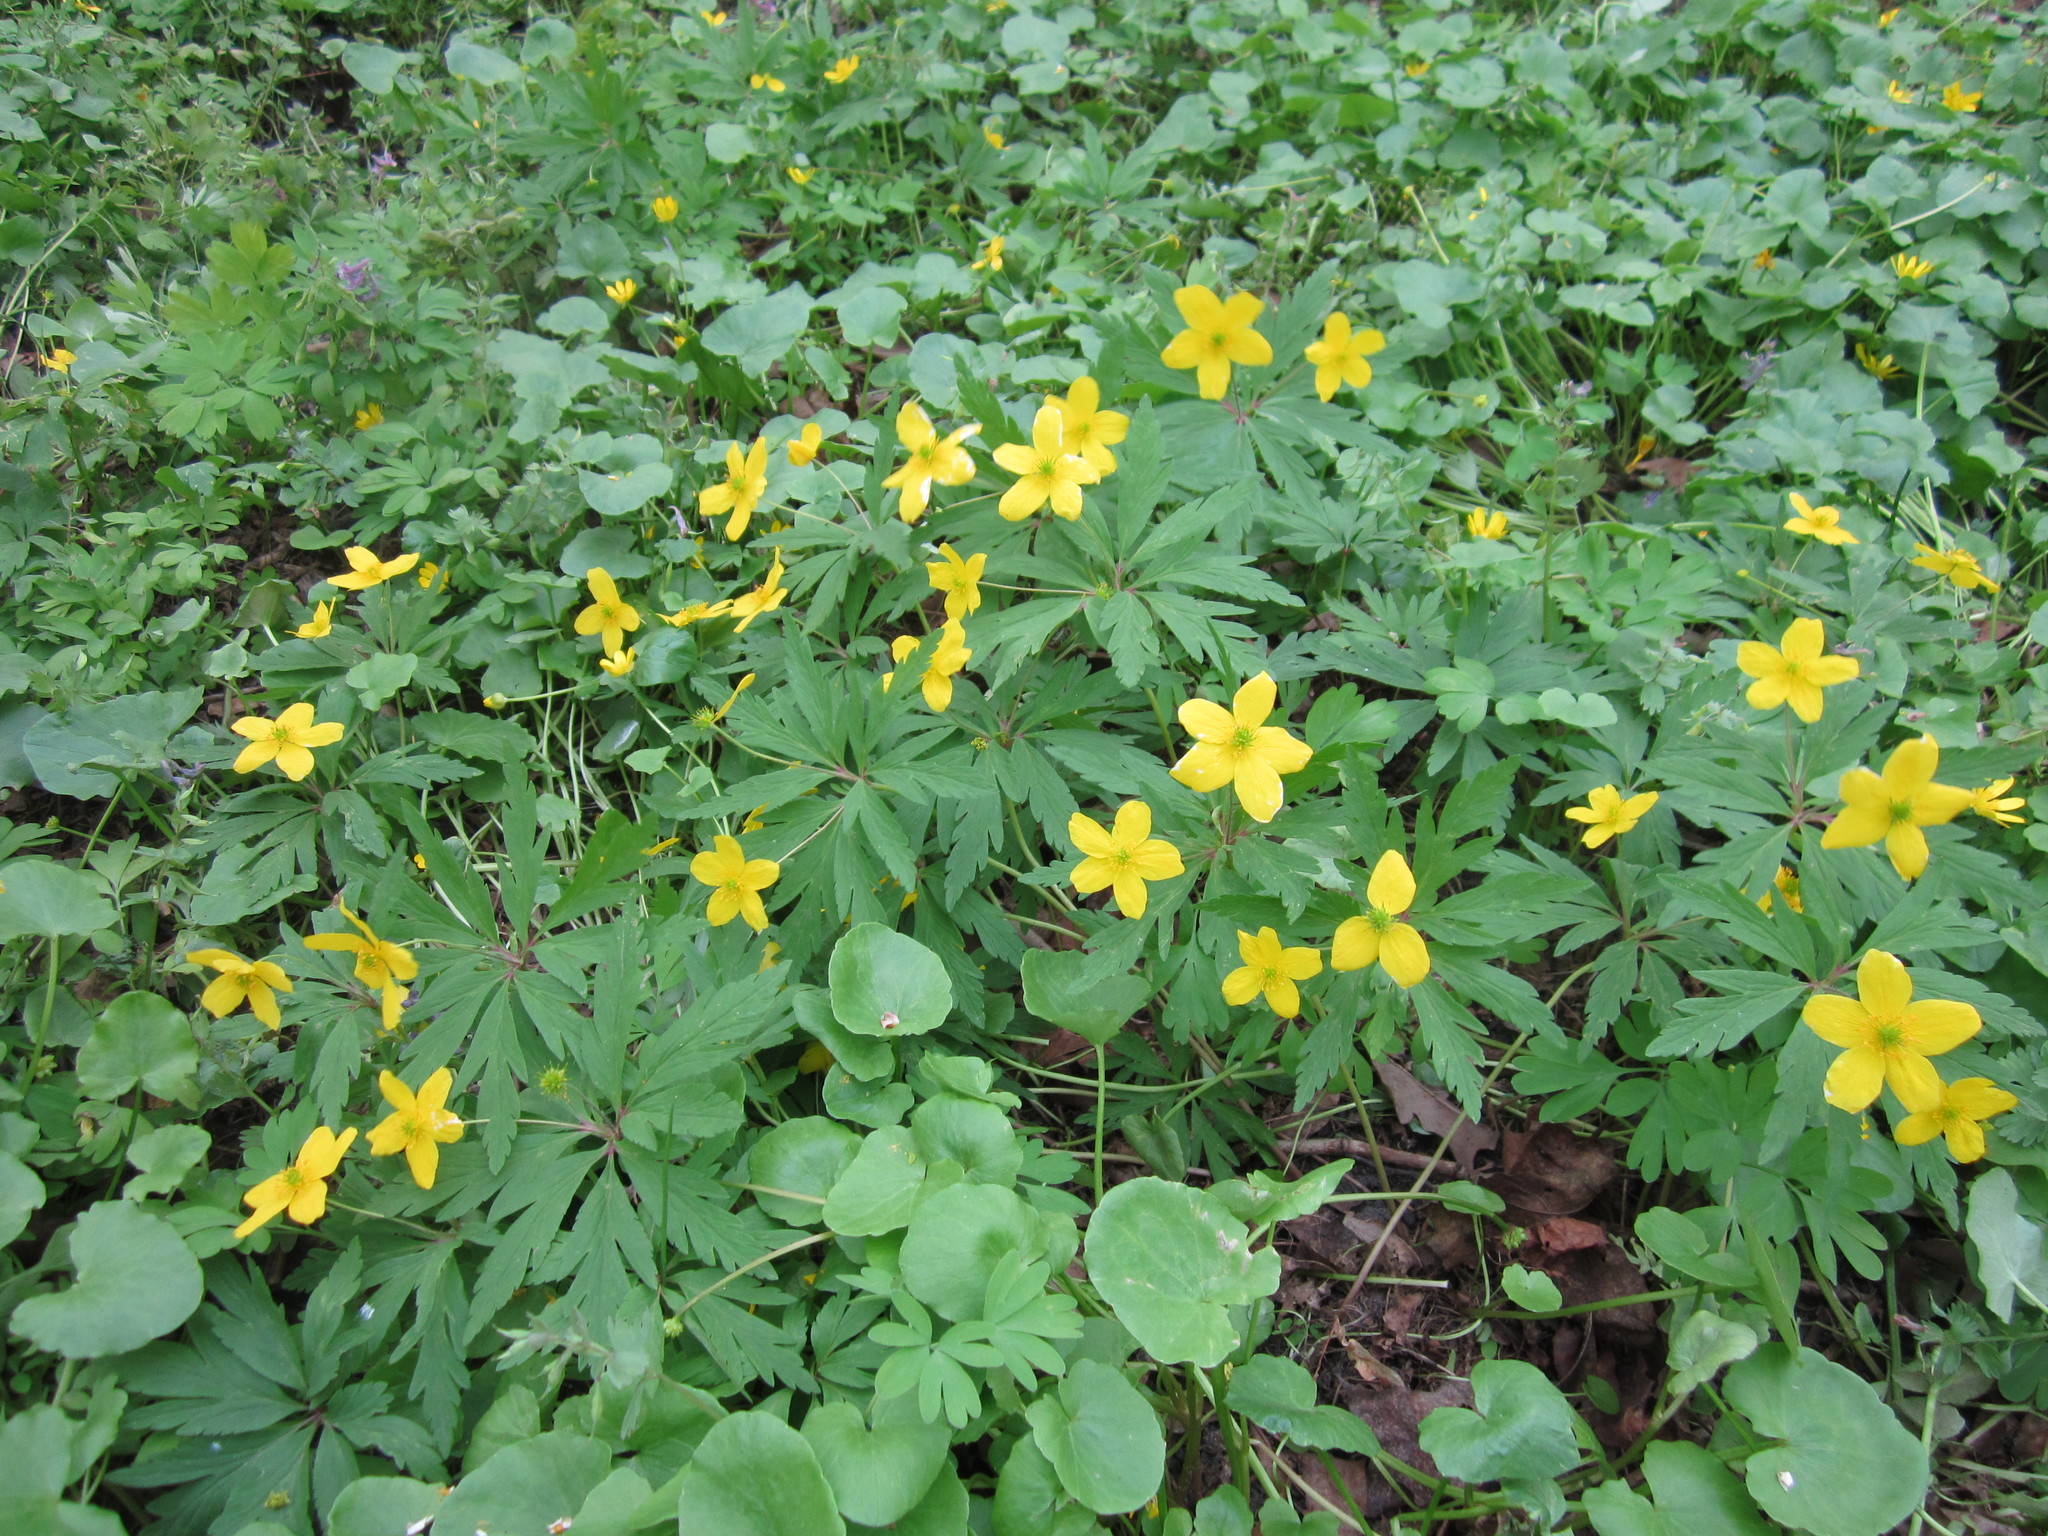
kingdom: Plantae
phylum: Tracheophyta
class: Magnoliopsida
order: Ranunculales
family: Ranunculaceae
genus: Anemone
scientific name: Anemone ranunculoides
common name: Yellow anemone
